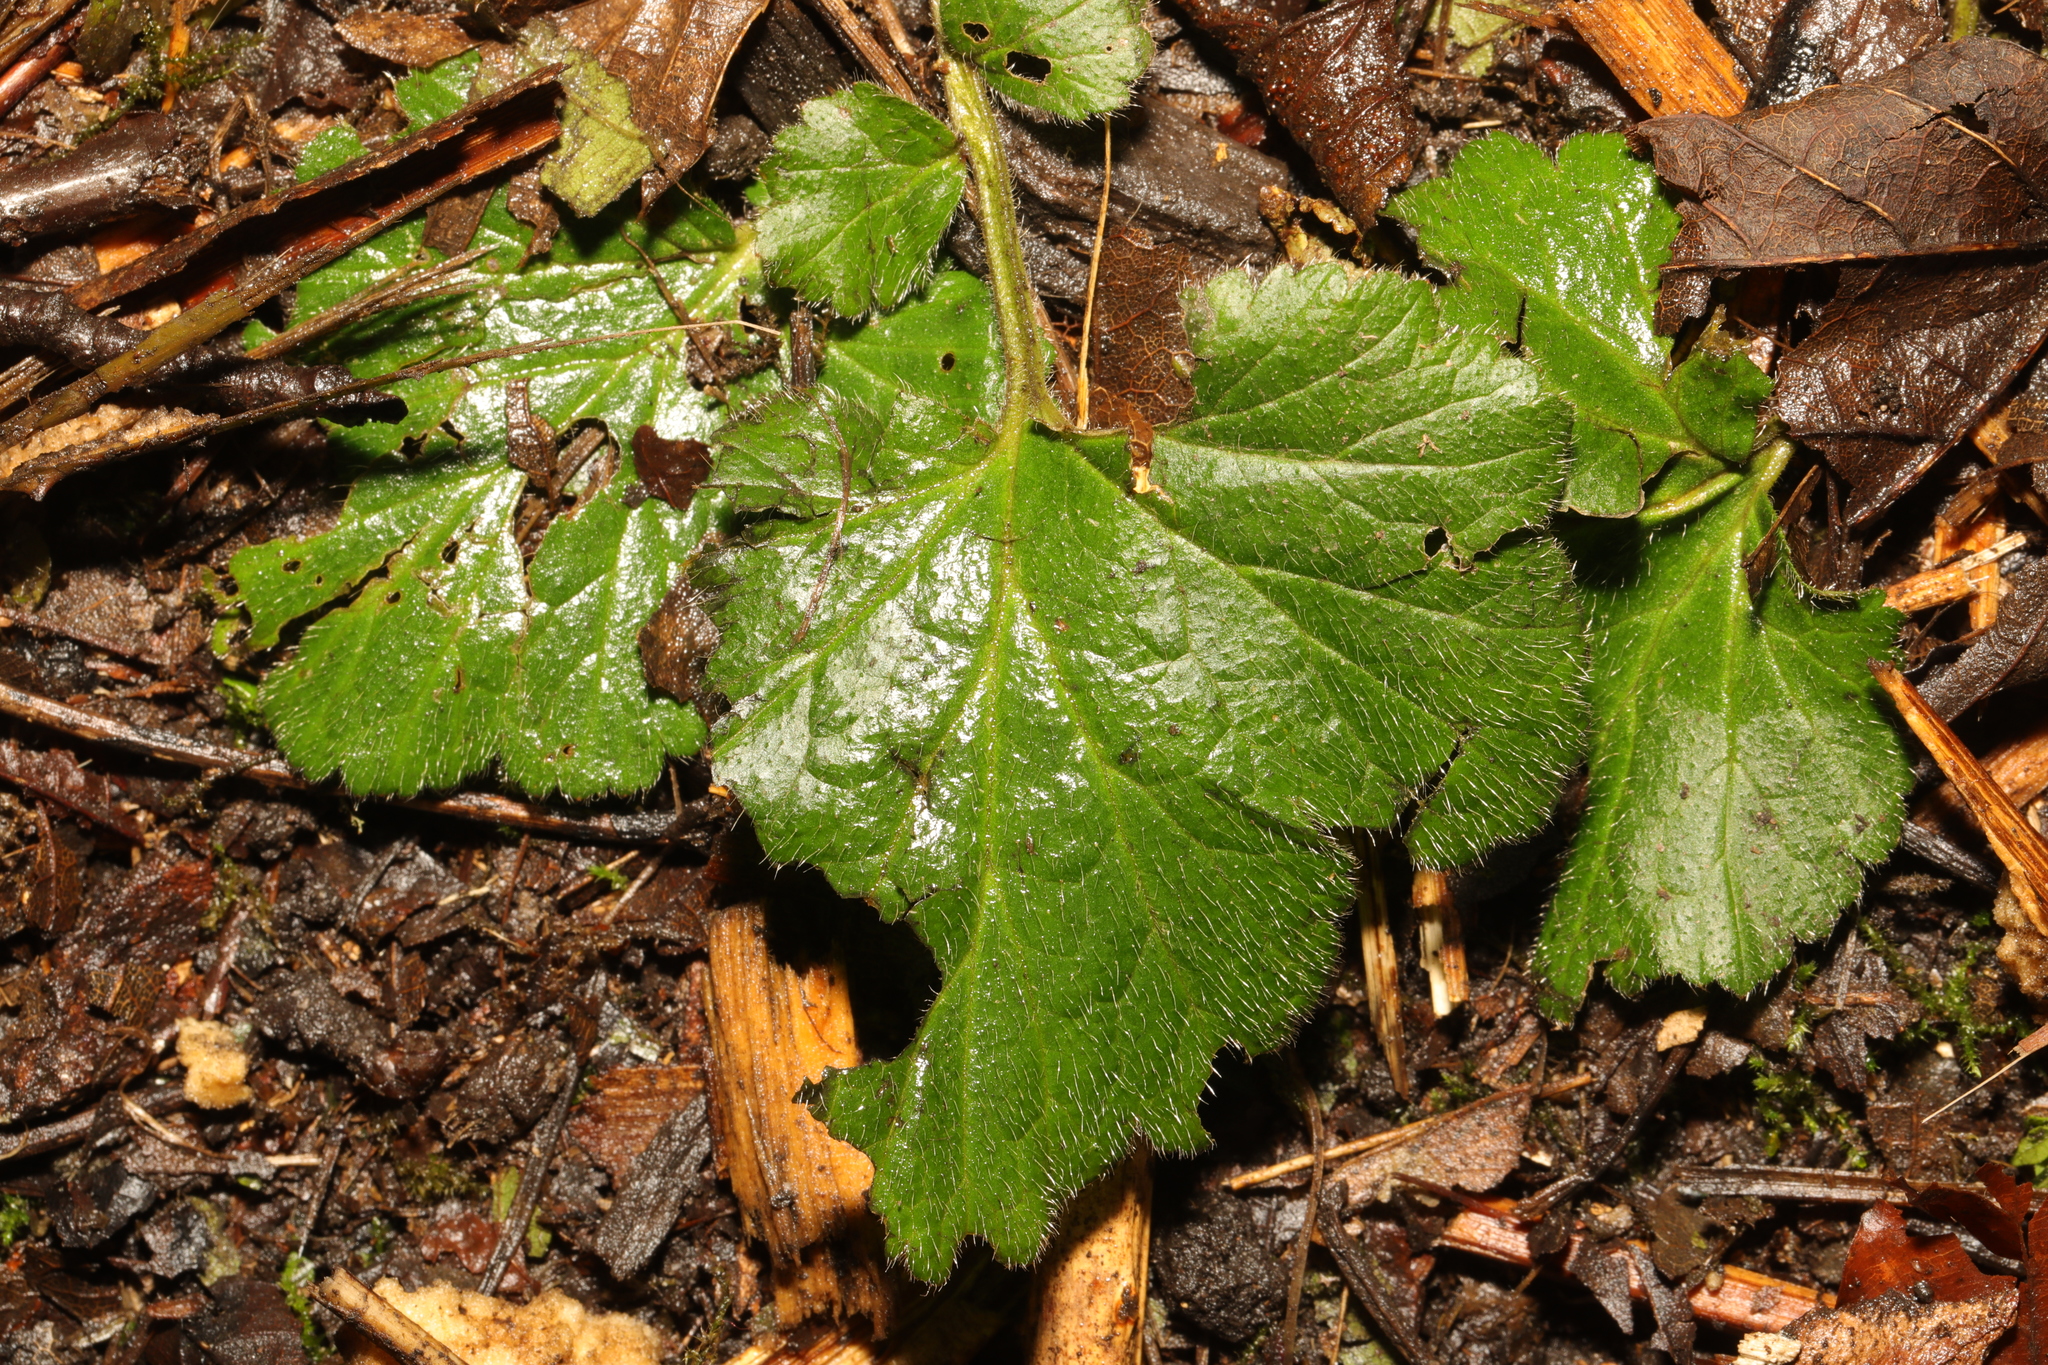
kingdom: Plantae
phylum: Tracheophyta
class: Magnoliopsida
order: Rosales
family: Rosaceae
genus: Geum
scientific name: Geum urbanum
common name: Wood avens
